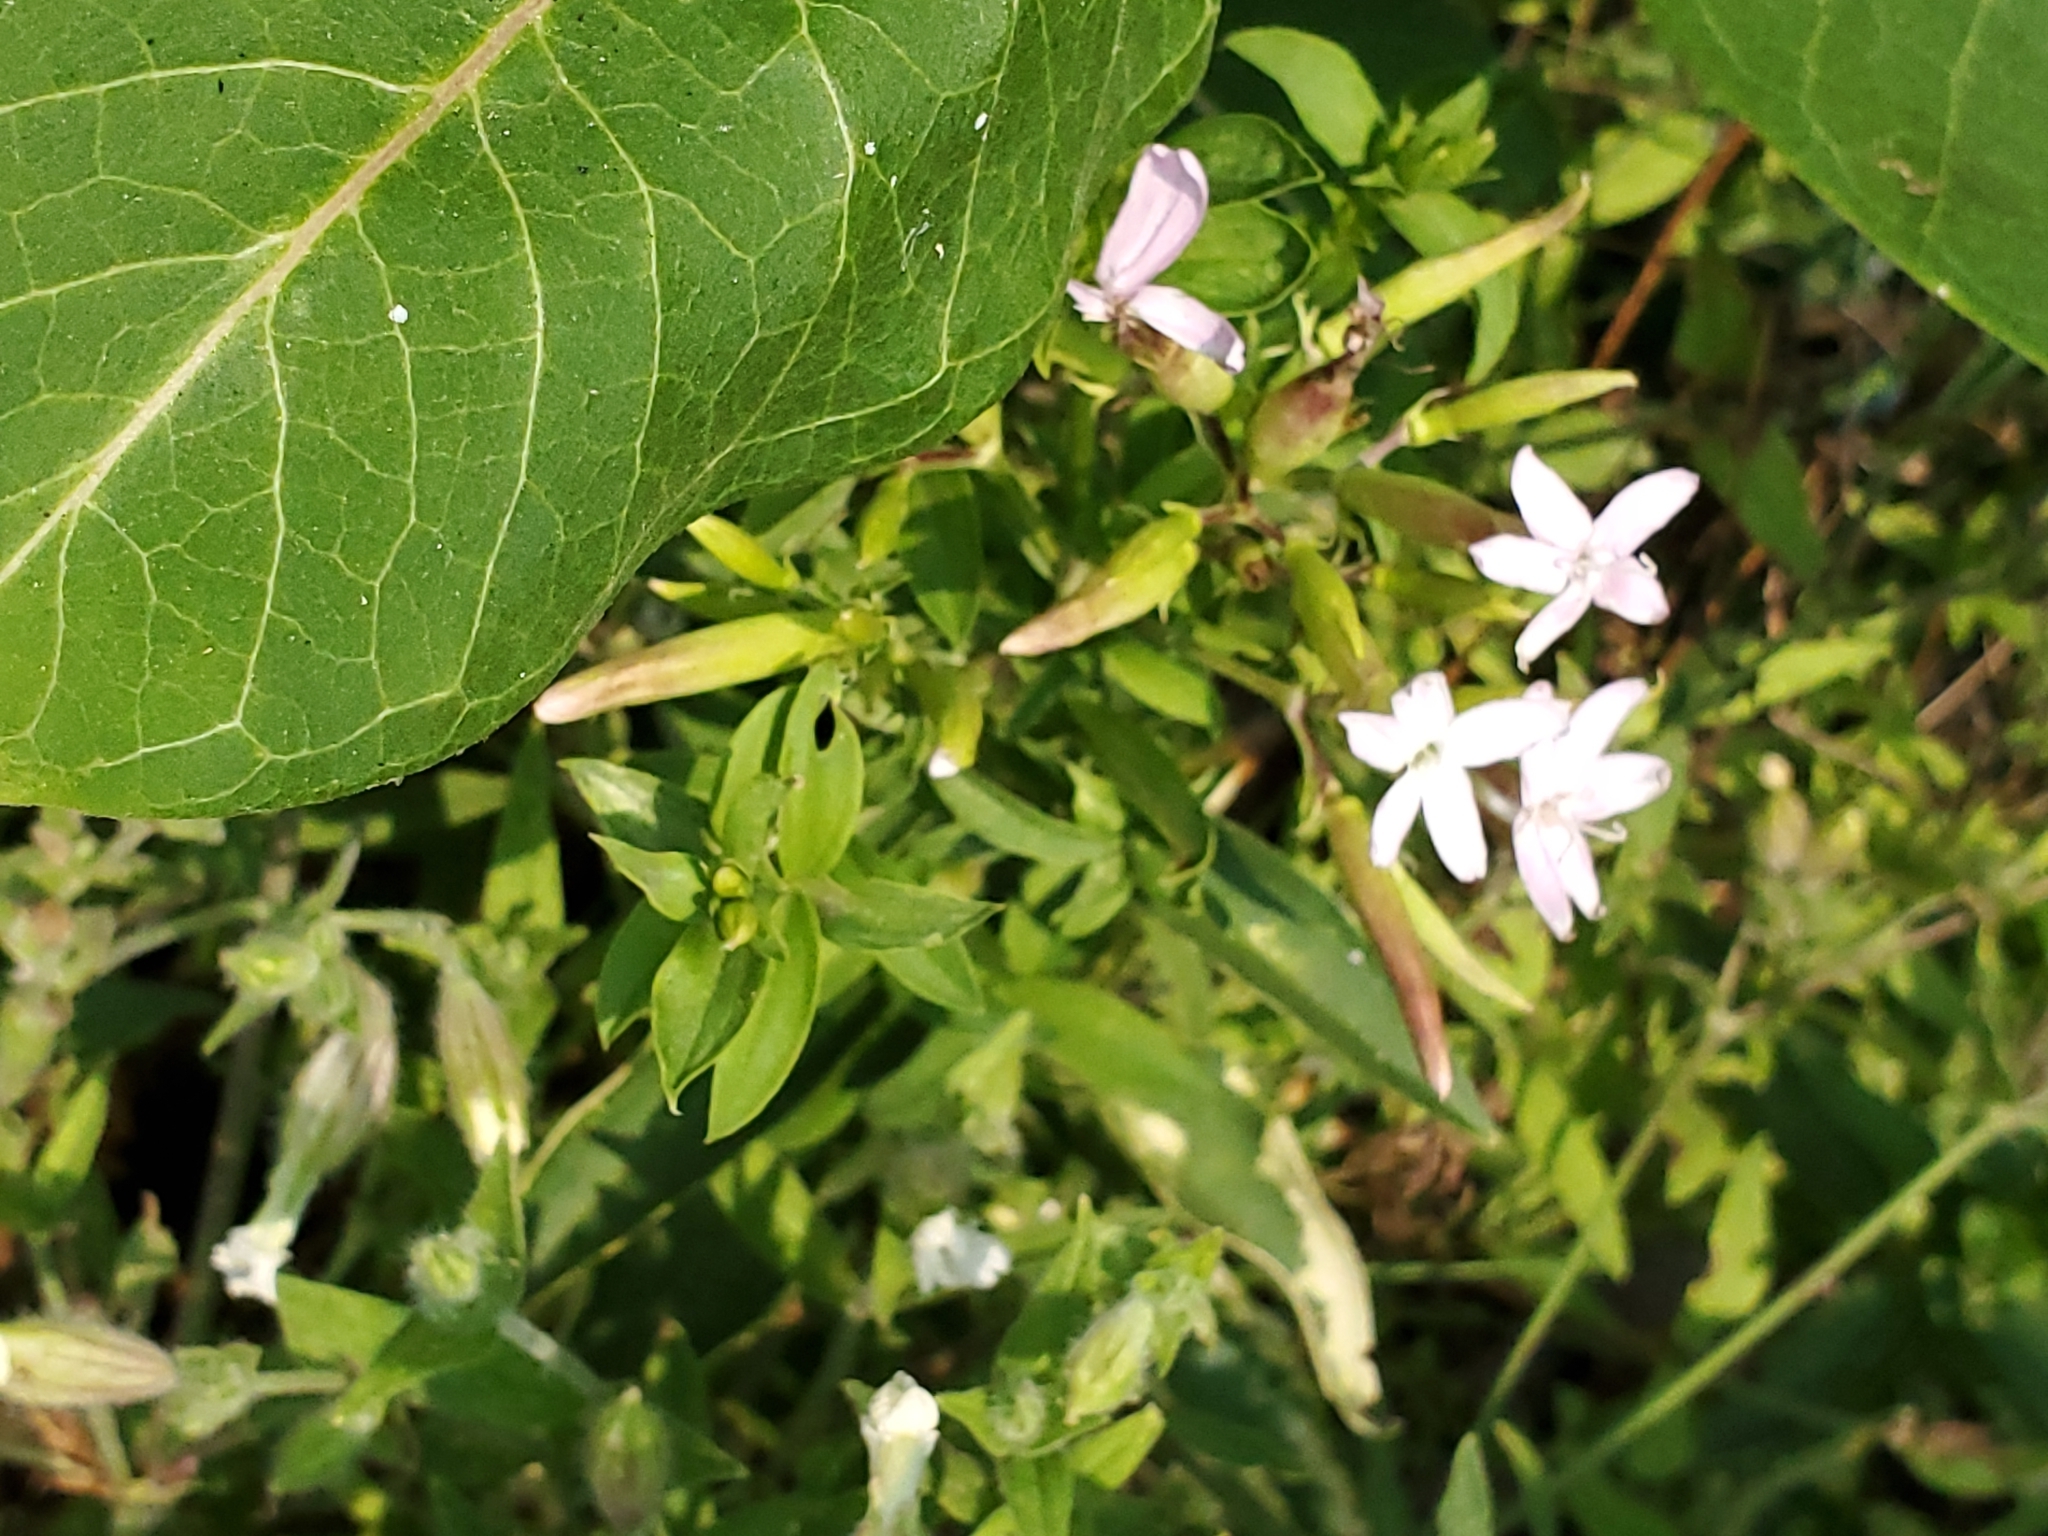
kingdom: Plantae
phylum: Tracheophyta
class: Magnoliopsida
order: Caryophyllales
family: Caryophyllaceae
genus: Saponaria
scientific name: Saponaria officinalis
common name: Soapwort
